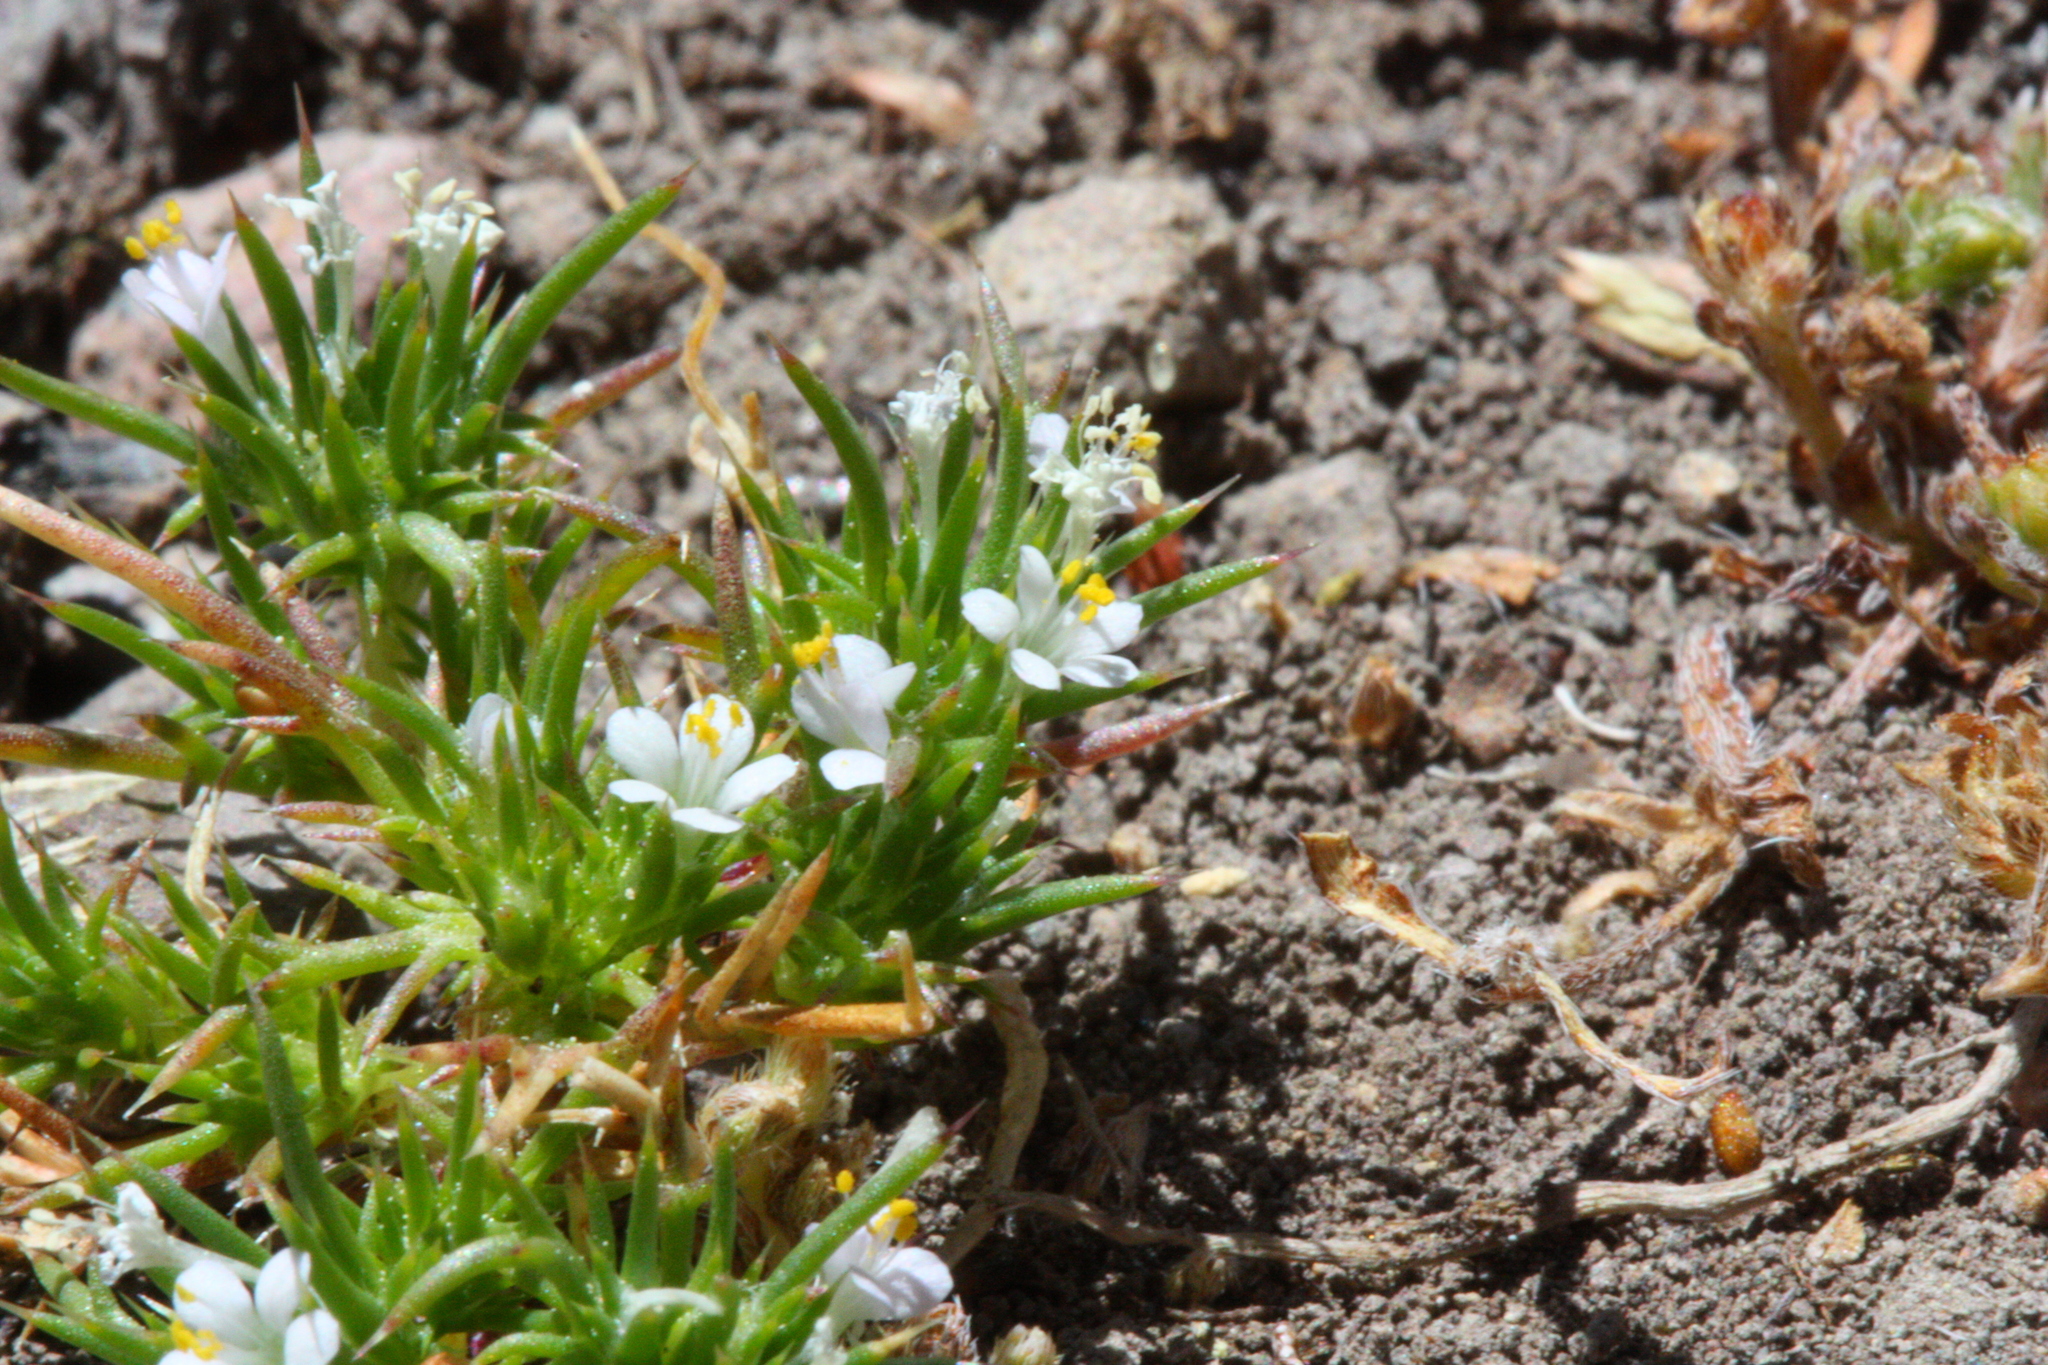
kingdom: Plantae
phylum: Tracheophyta
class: Magnoliopsida
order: Ericales
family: Polemoniaceae
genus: Navarretia
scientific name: Navarretia intertexta
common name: Needle-leaved navarretia
